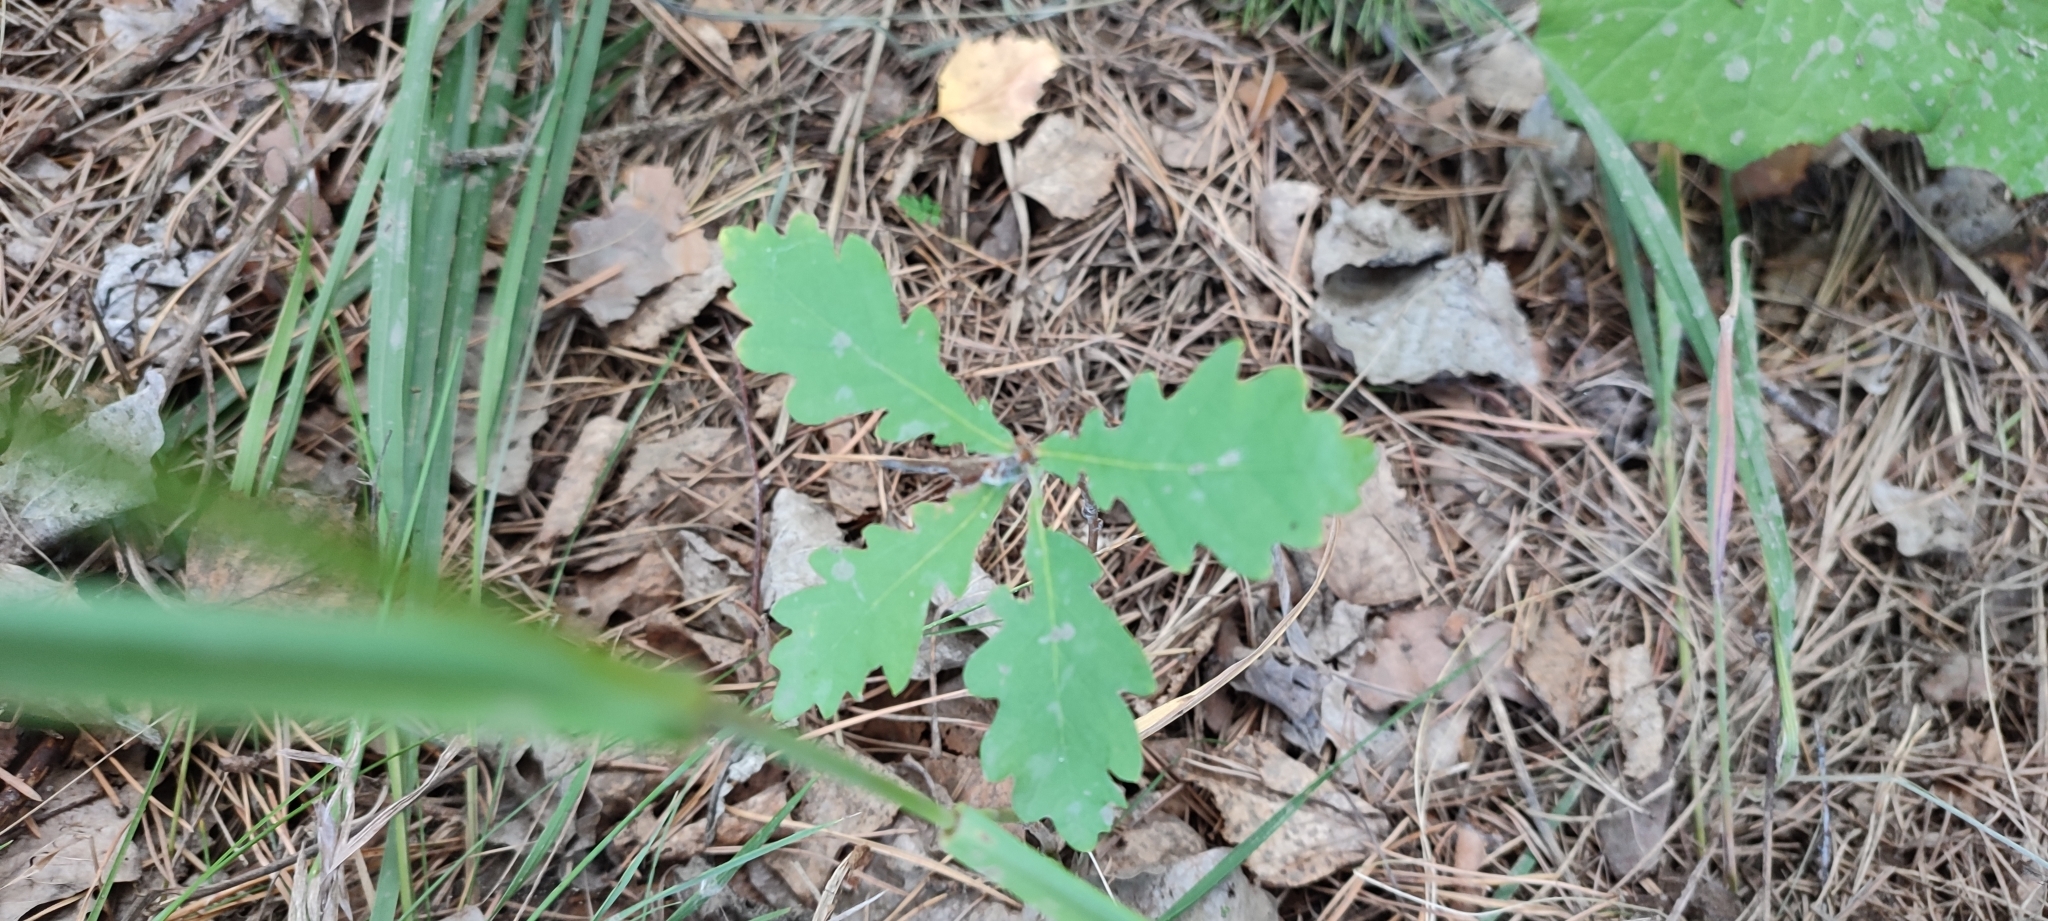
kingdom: Plantae
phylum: Tracheophyta
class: Magnoliopsida
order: Fagales
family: Fagaceae
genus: Quercus
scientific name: Quercus robur
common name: Pedunculate oak
